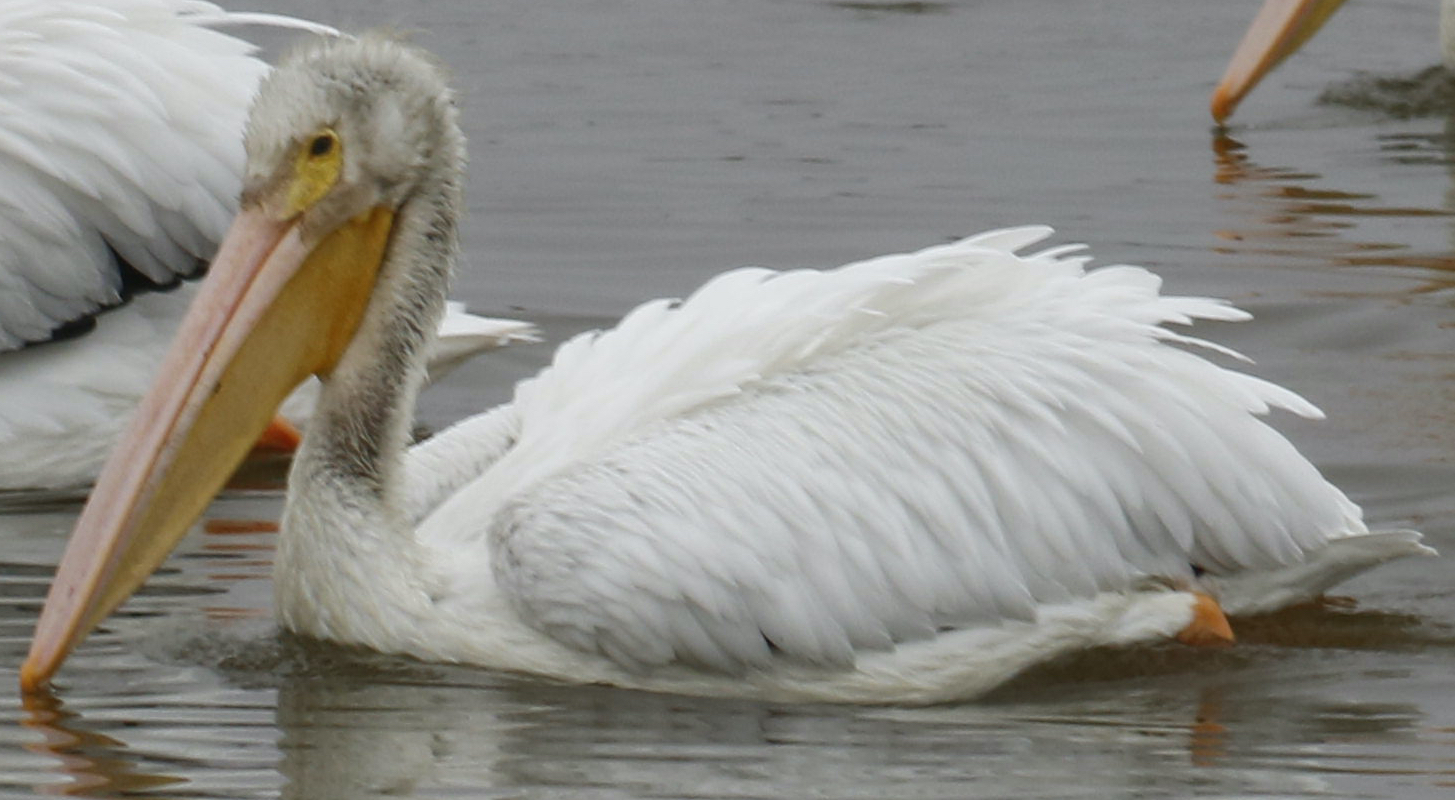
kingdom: Animalia
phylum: Chordata
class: Aves
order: Pelecaniformes
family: Pelecanidae
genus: Pelecanus
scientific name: Pelecanus erythrorhynchos
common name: American white pelican
